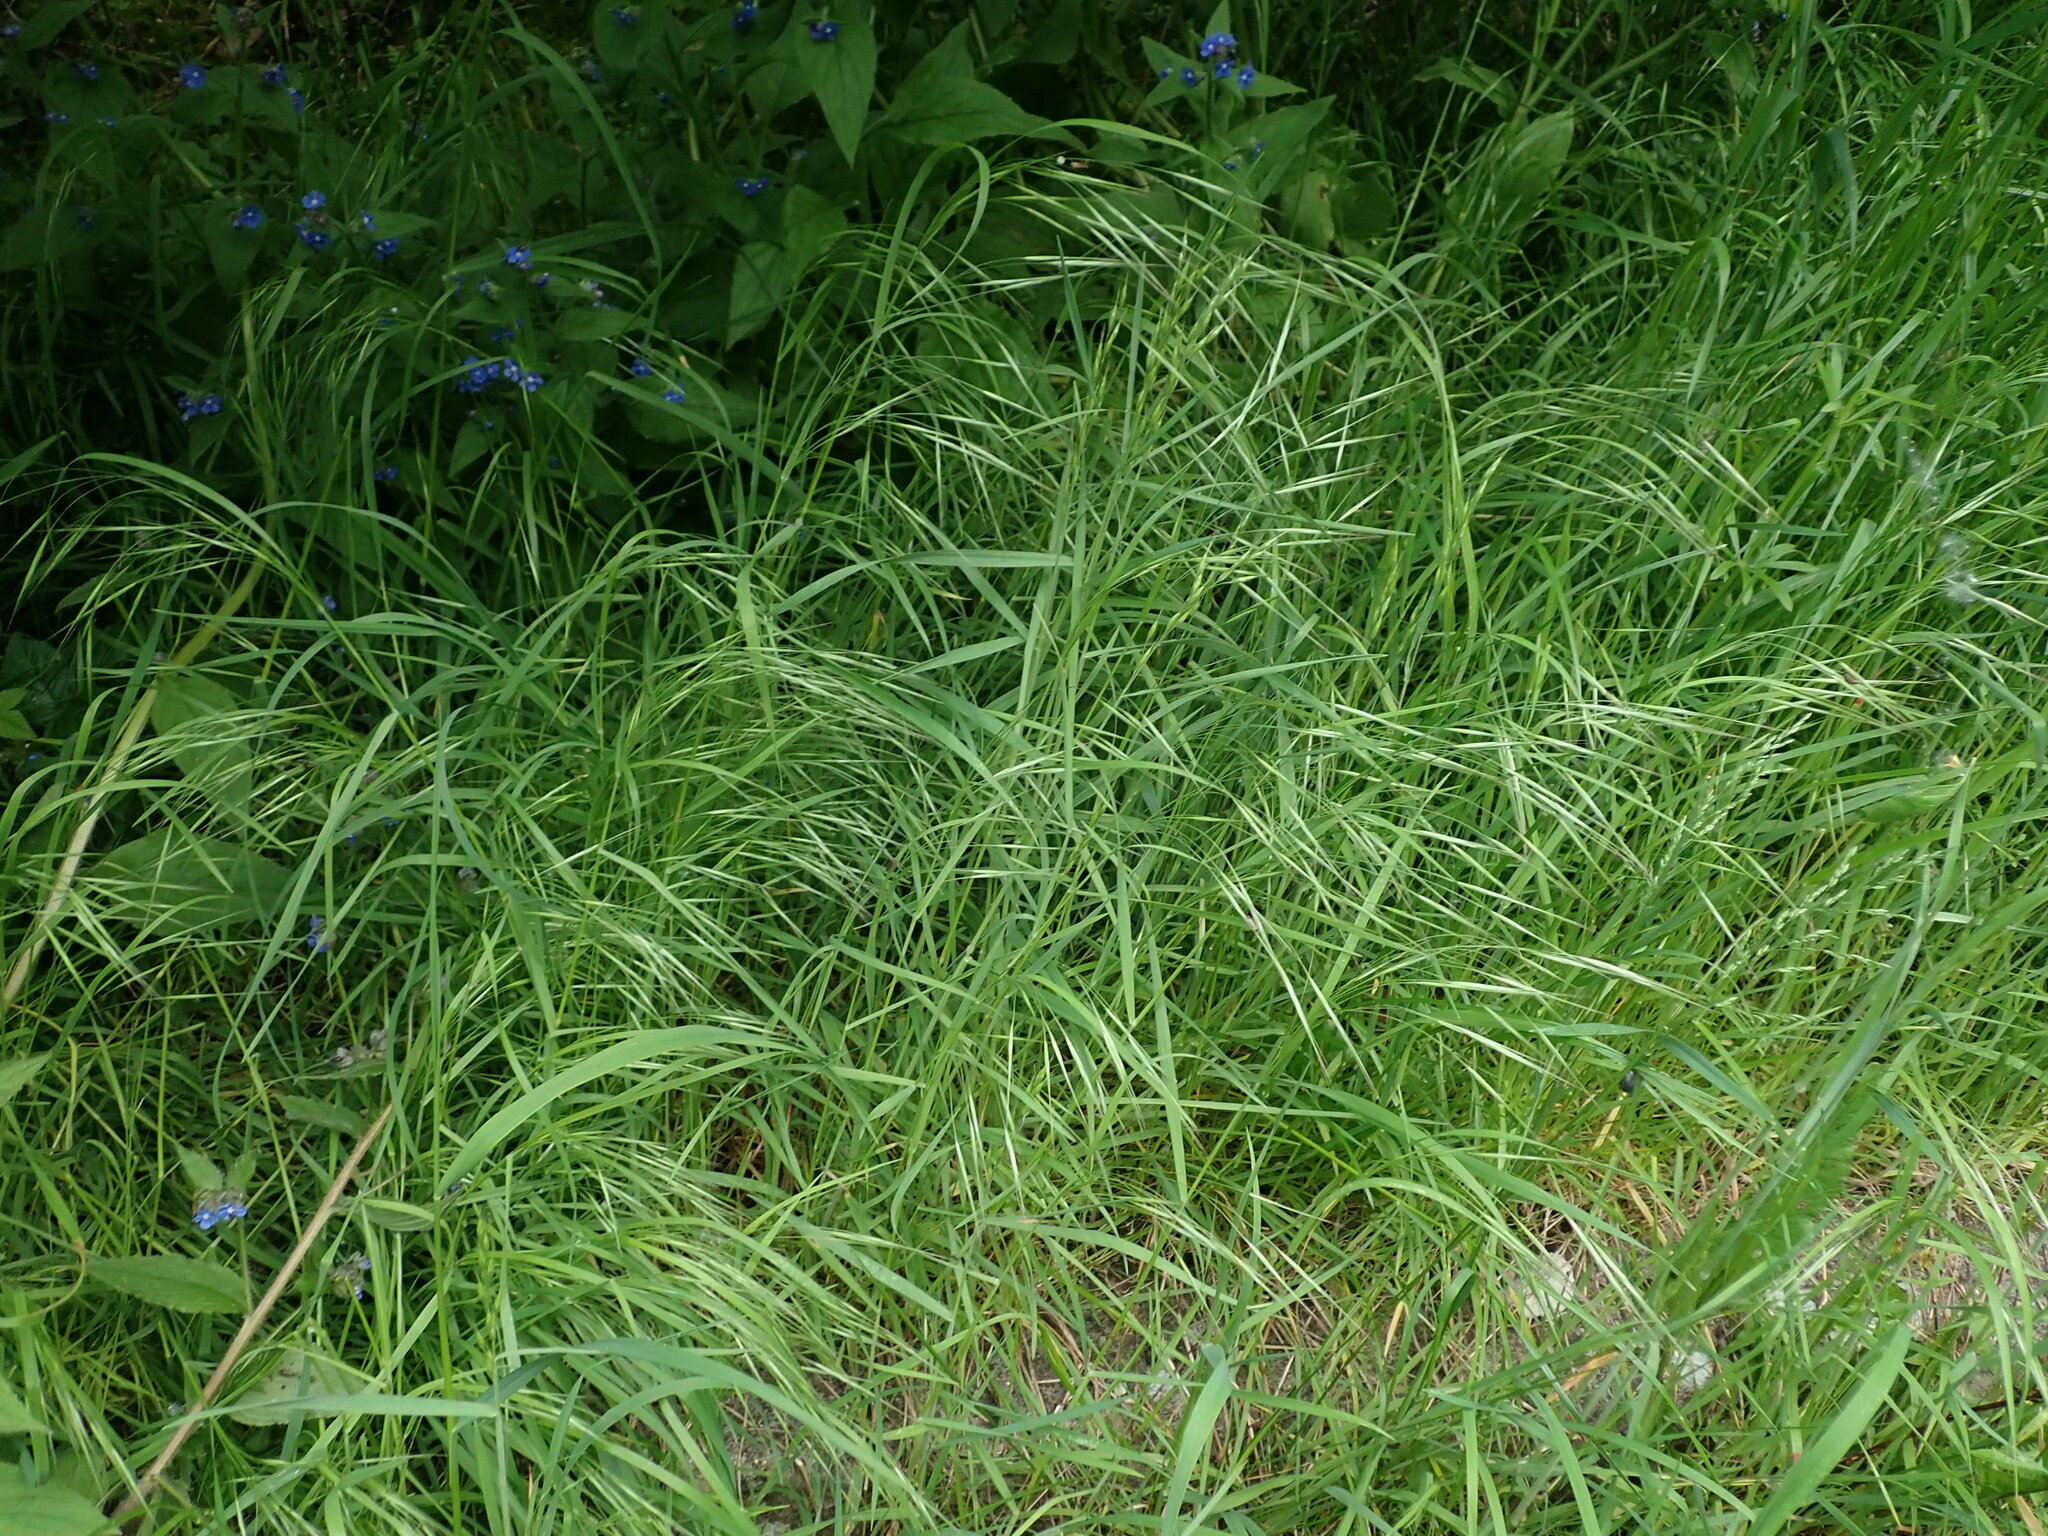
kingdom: Plantae
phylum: Tracheophyta
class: Liliopsida
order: Poales
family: Poaceae
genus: Bromus
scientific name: Bromus sterilis
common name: Poverty brome
